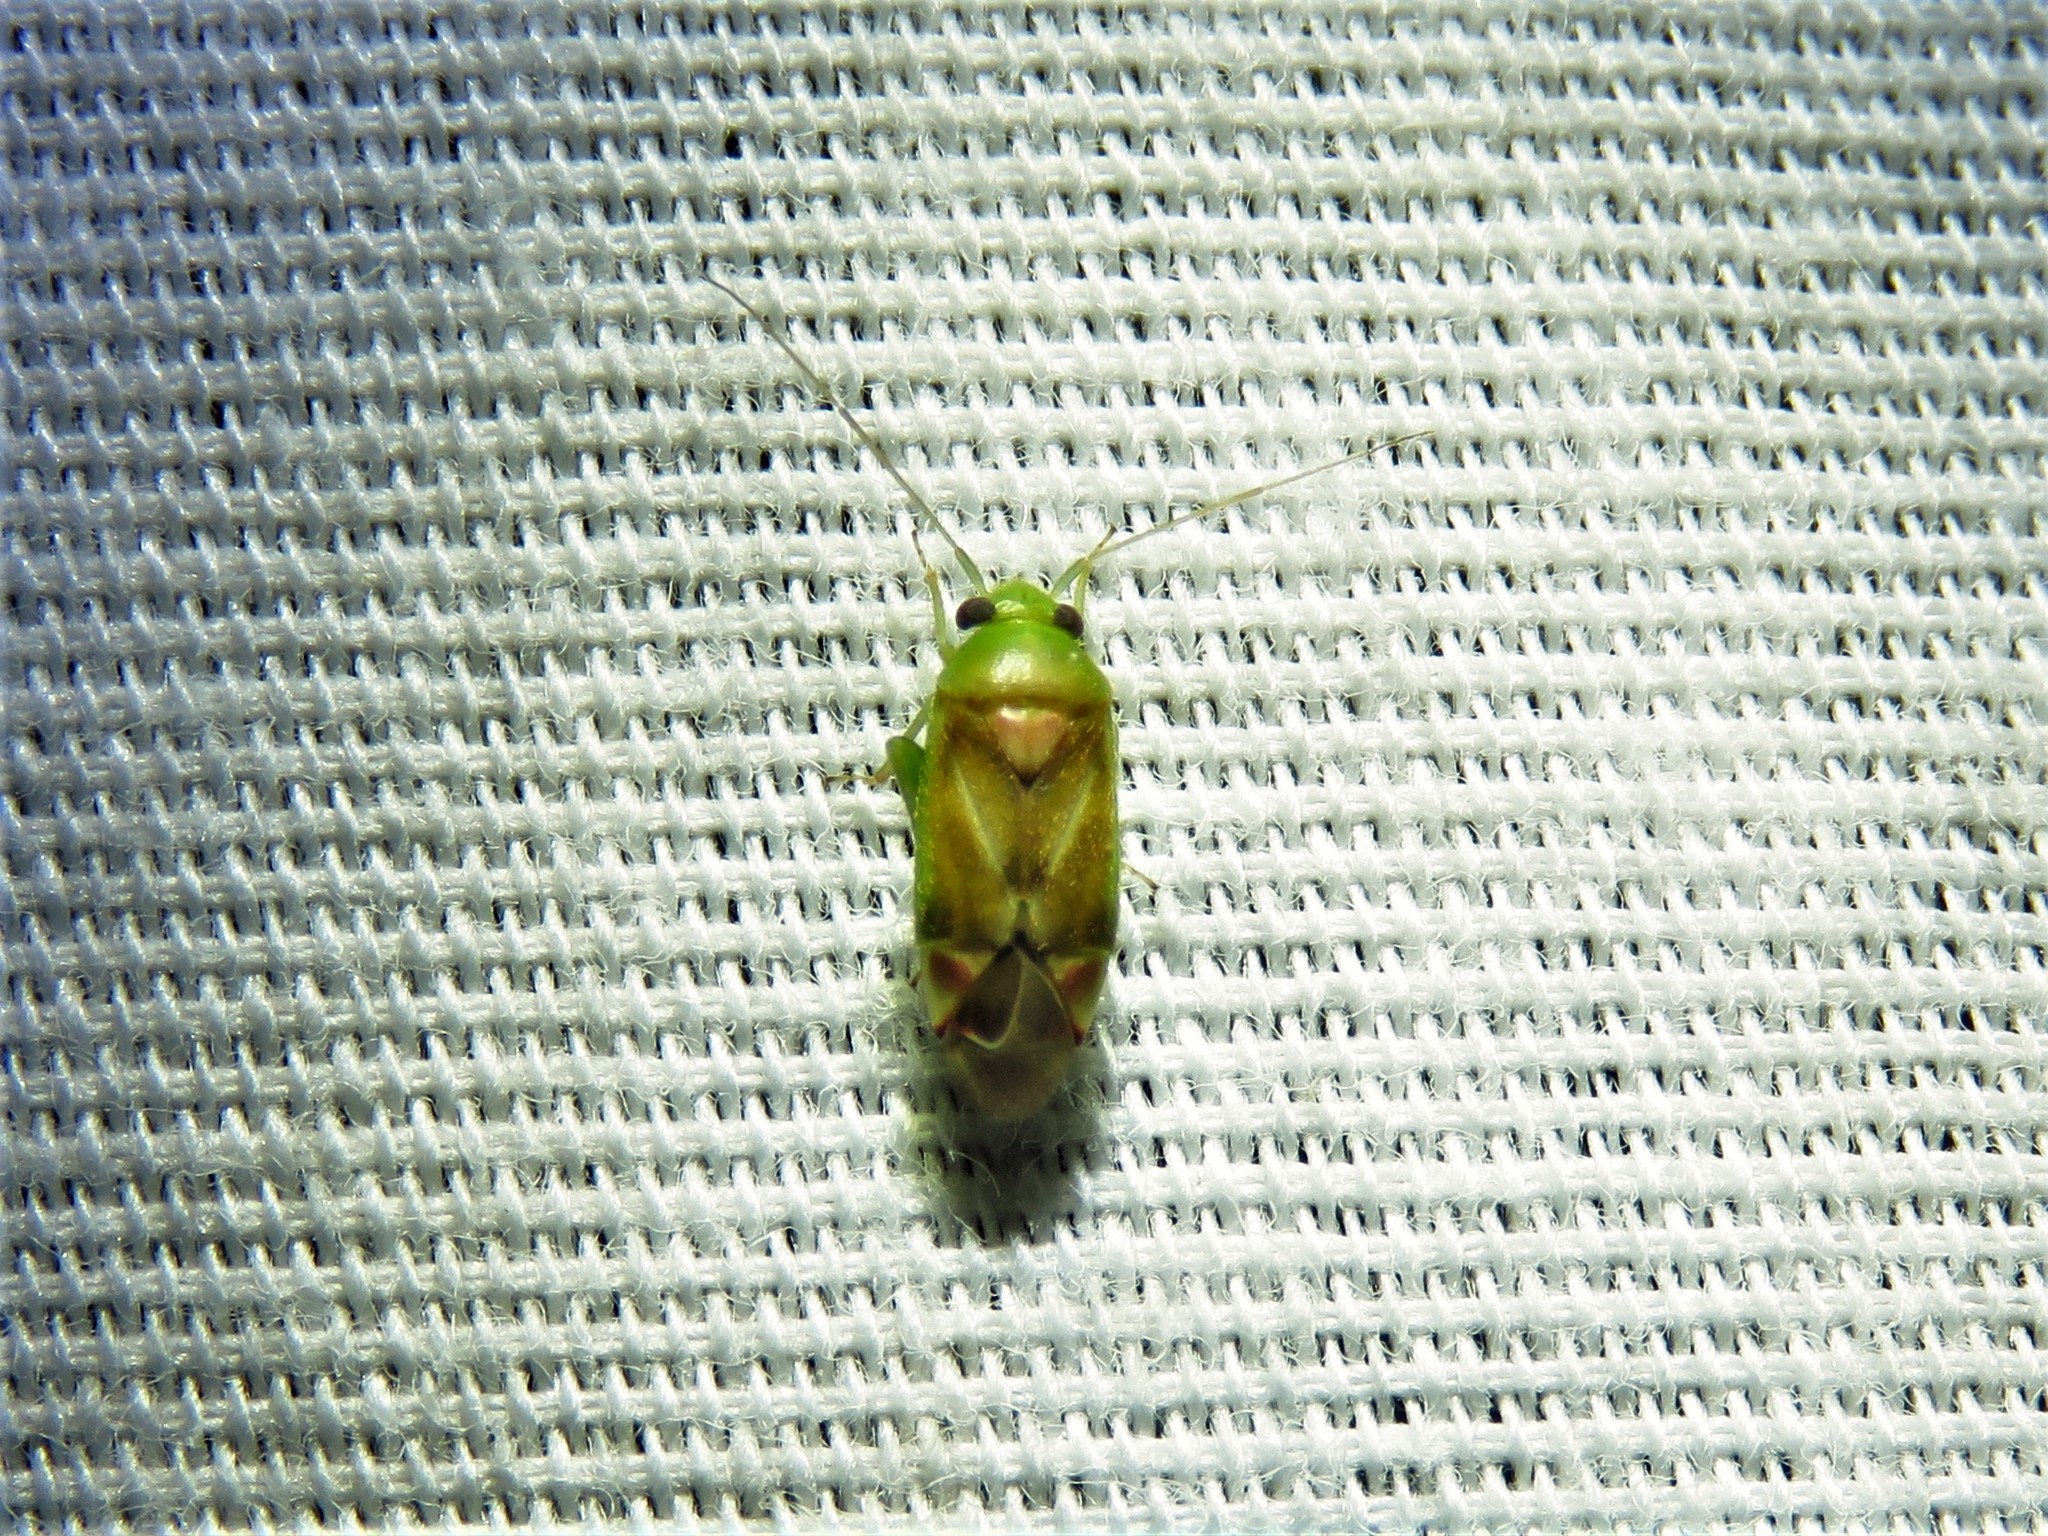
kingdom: Animalia
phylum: Arthropoda
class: Insecta
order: Hemiptera
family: Miridae
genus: Dichrooscytus
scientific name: Dichrooscytus
